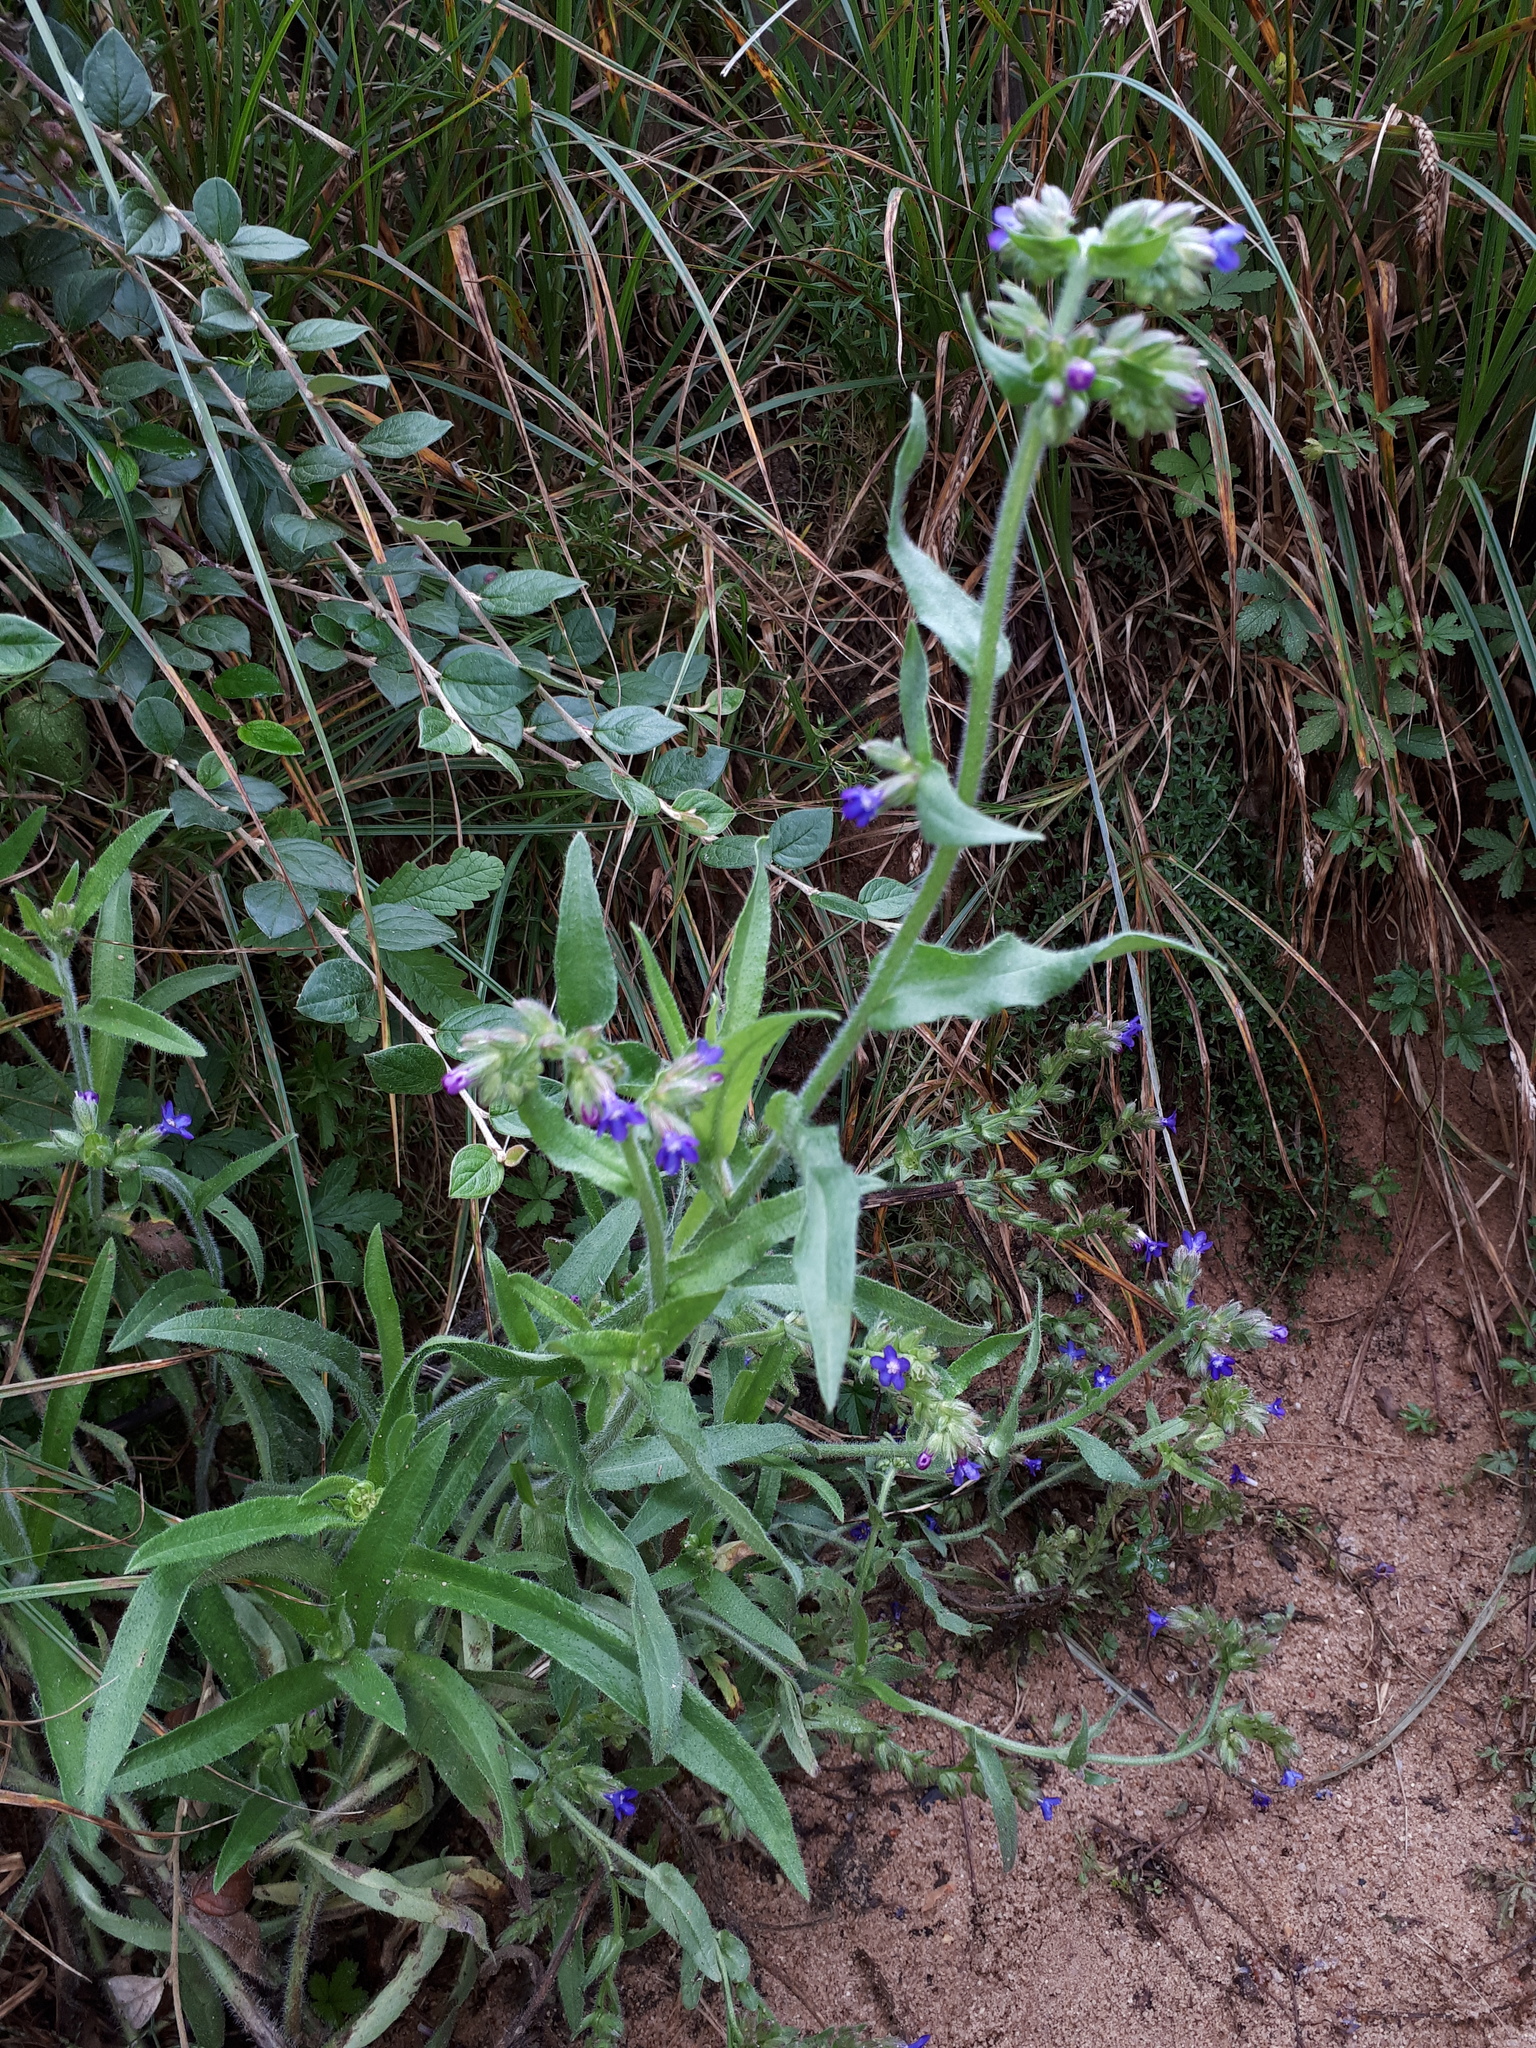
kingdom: Plantae
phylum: Tracheophyta
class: Magnoliopsida
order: Boraginales
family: Boraginaceae
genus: Anchusa
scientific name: Anchusa officinalis
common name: Alkanet
